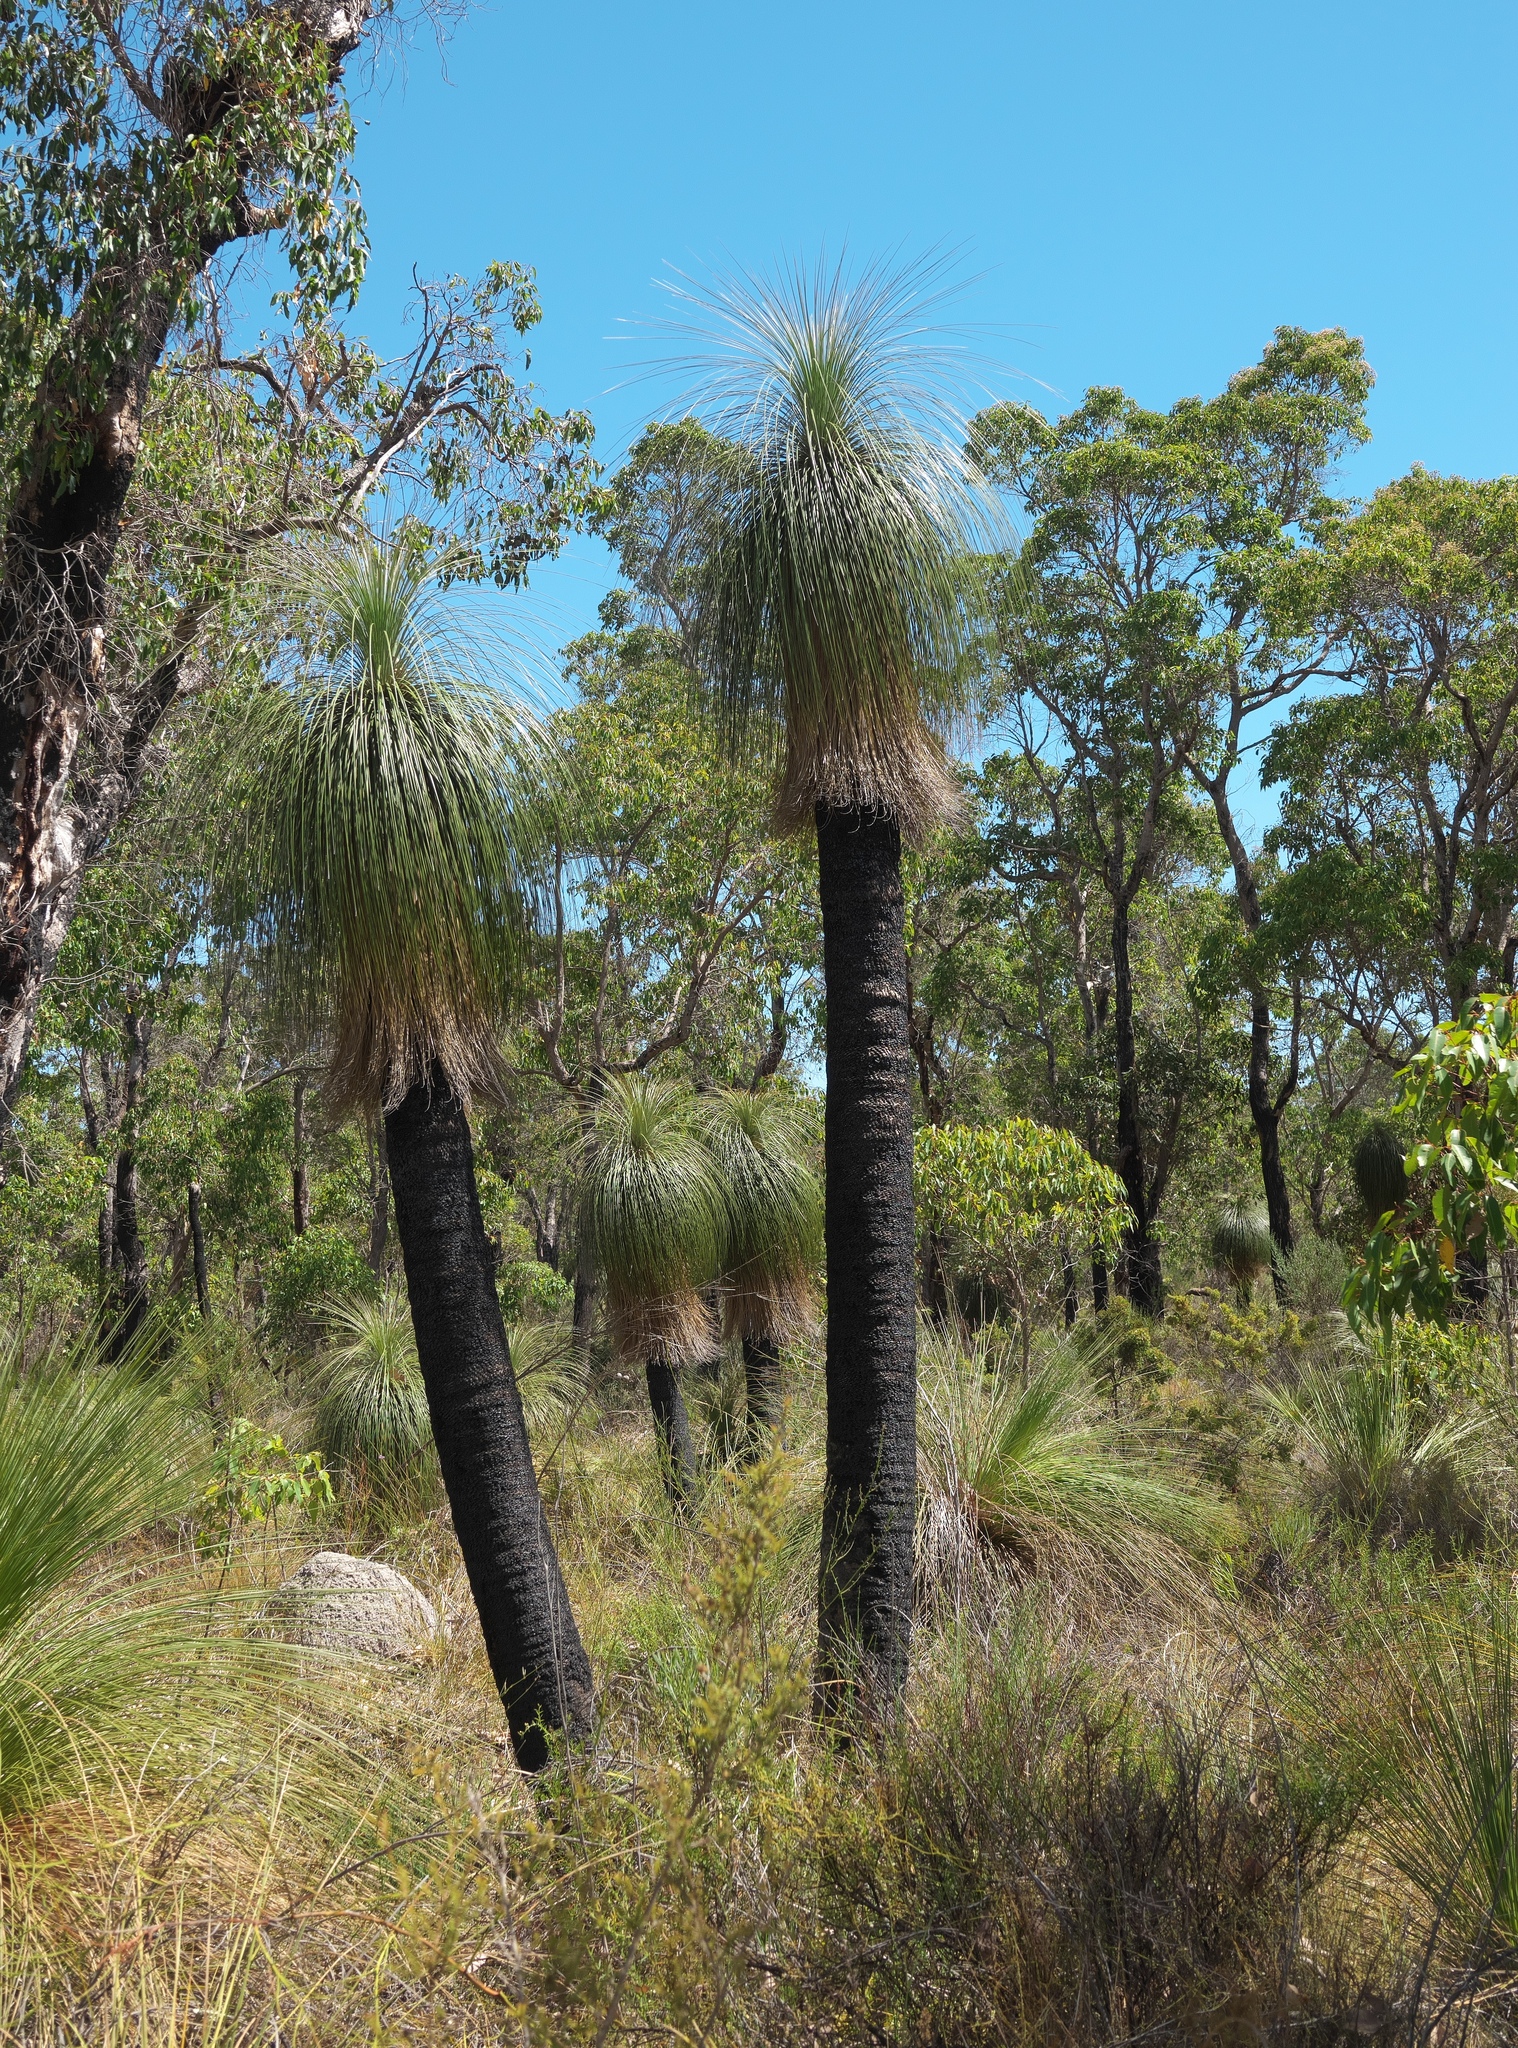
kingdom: Plantae
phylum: Tracheophyta
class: Liliopsida
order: Arecales
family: Dasypogonaceae
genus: Kingia
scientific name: Kingia australis
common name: Black gin
